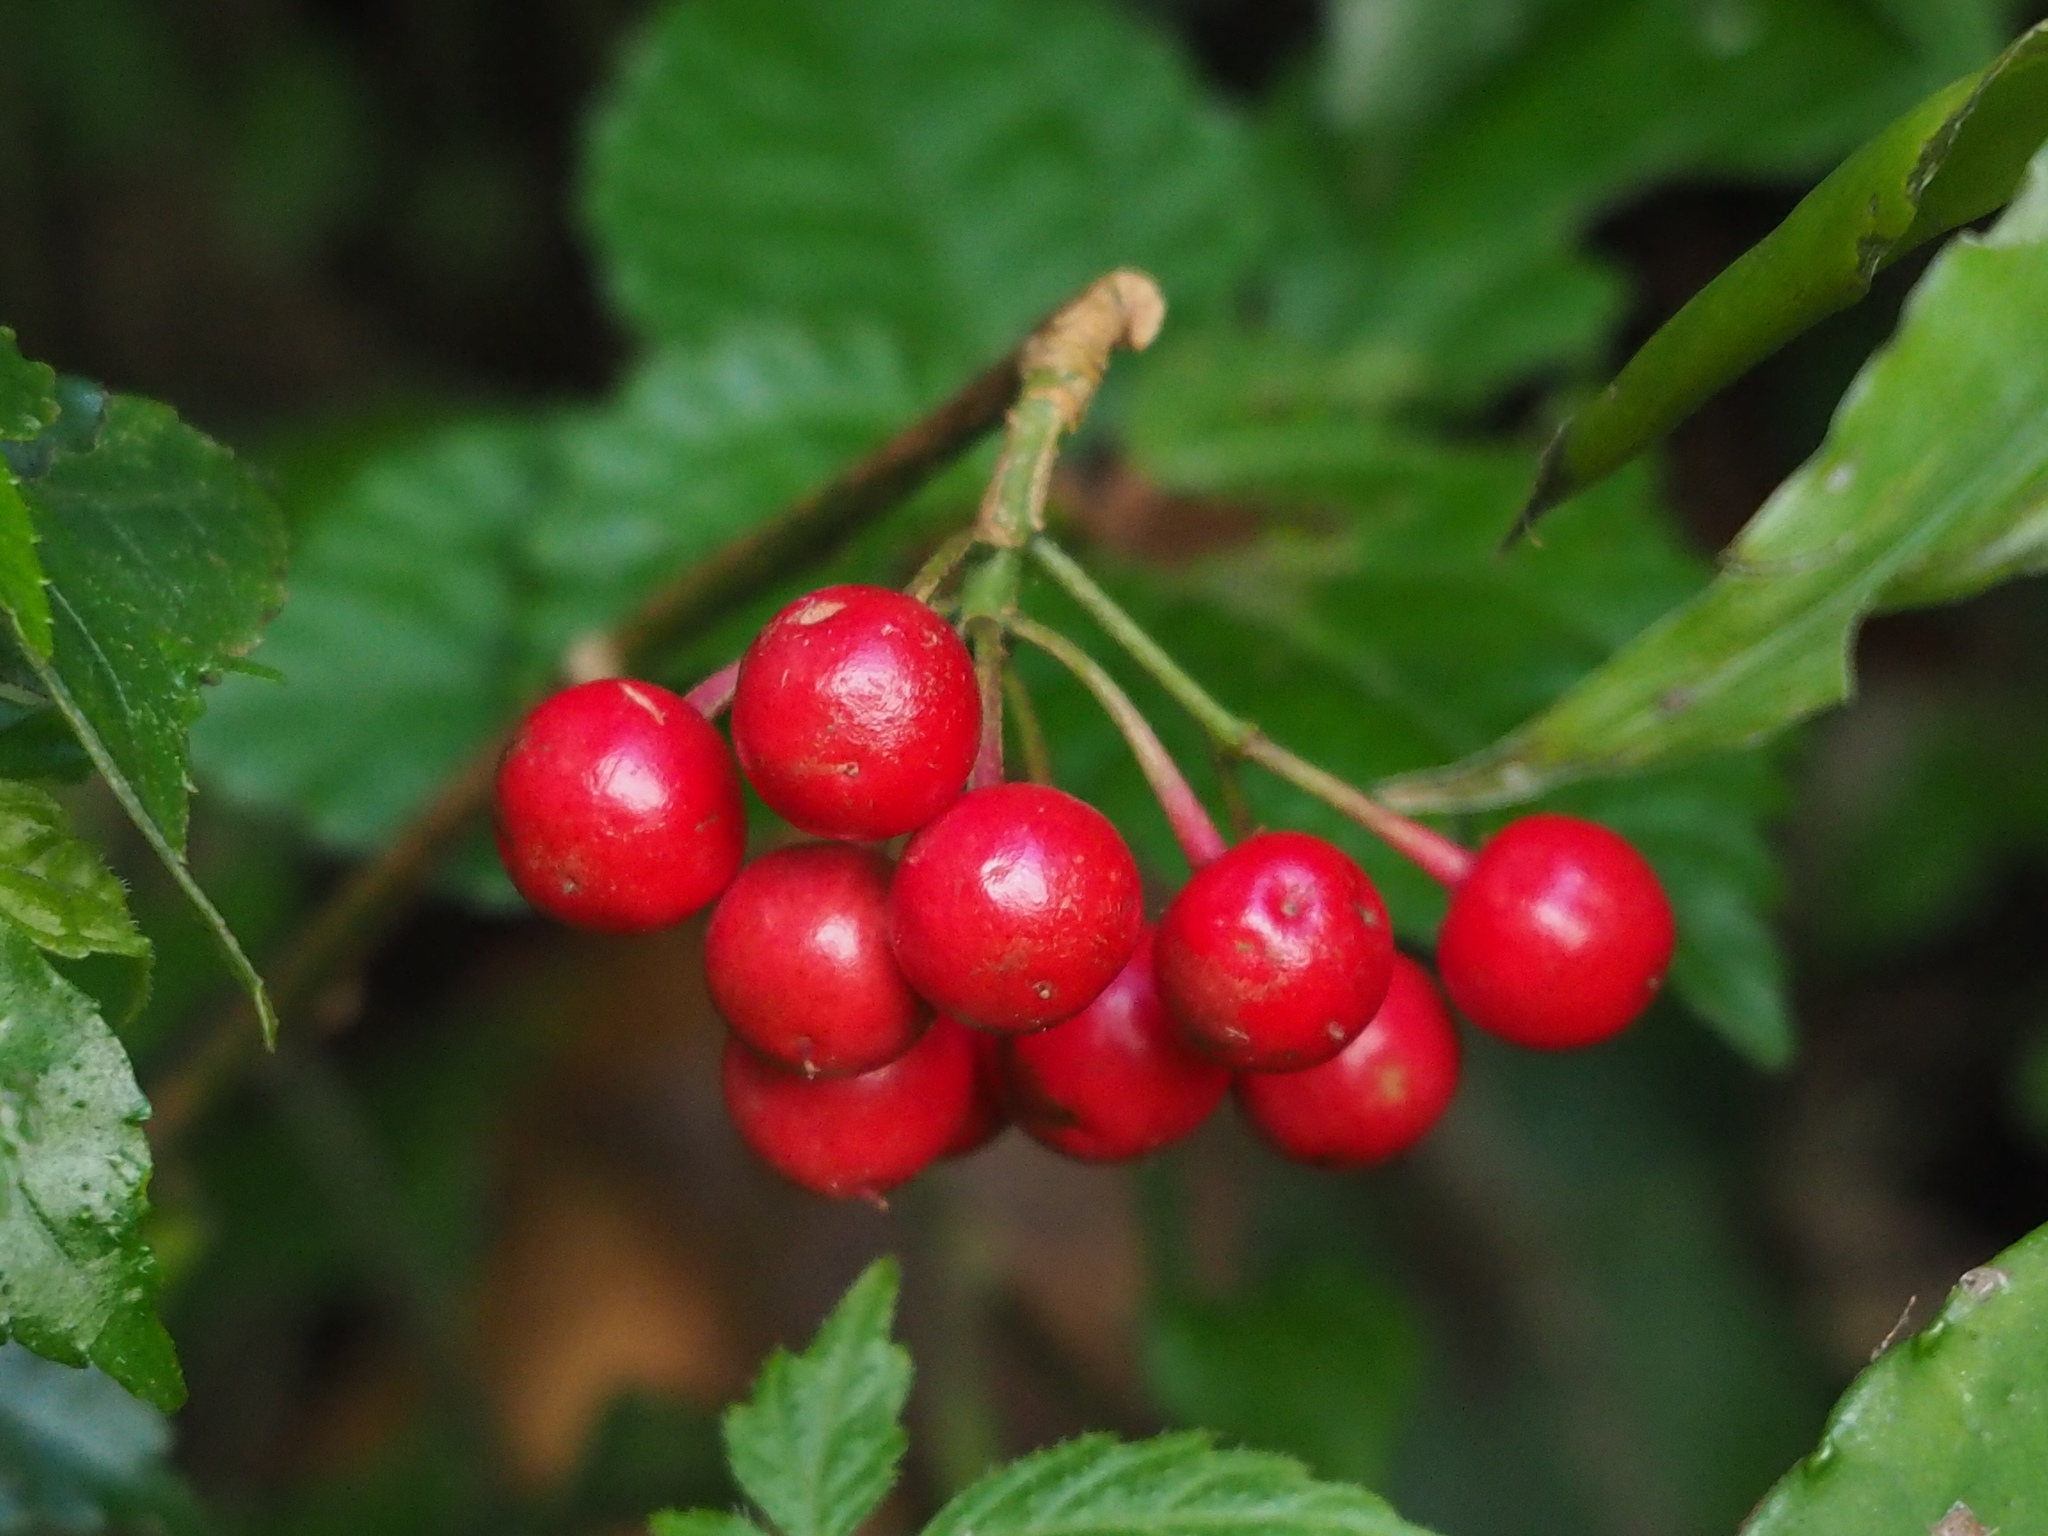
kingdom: Plantae
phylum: Tracheophyta
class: Magnoliopsida
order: Ericales
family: Primulaceae
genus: Ardisia
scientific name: Ardisia crenata
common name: Hen's eyes
